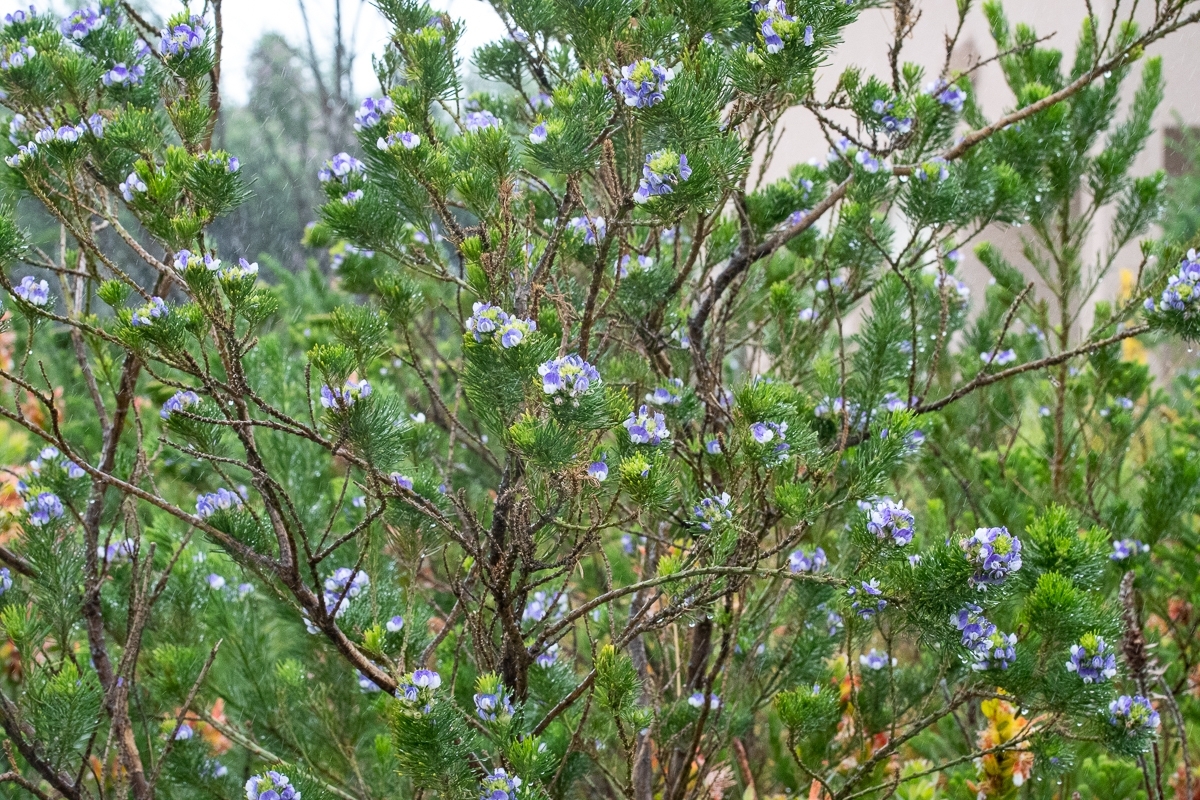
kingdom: Plantae
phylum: Tracheophyta
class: Magnoliopsida
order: Fabales
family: Fabaceae
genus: Psoralea
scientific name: Psoralea pinnata
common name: African scurfpea
